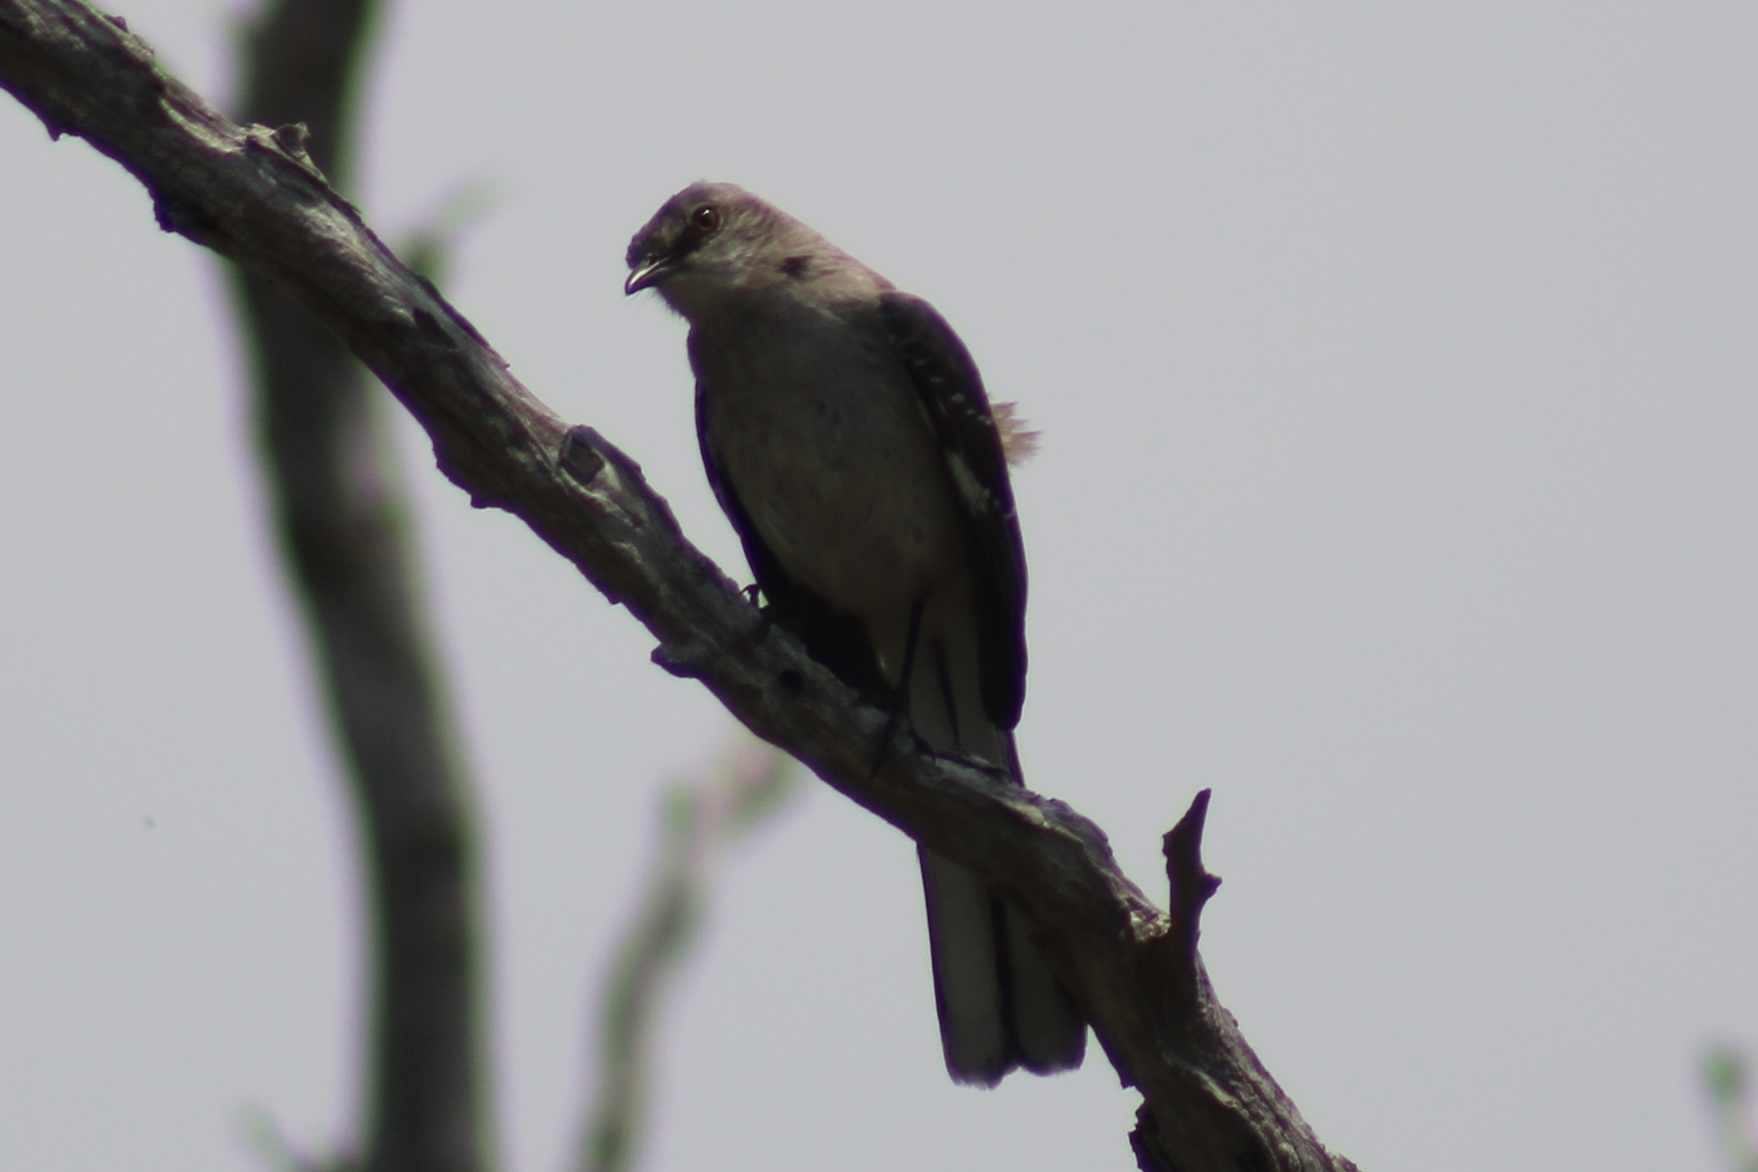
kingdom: Animalia
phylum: Chordata
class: Aves
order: Passeriformes
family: Mimidae
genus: Mimus
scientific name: Mimus polyglottos
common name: Northern mockingbird
